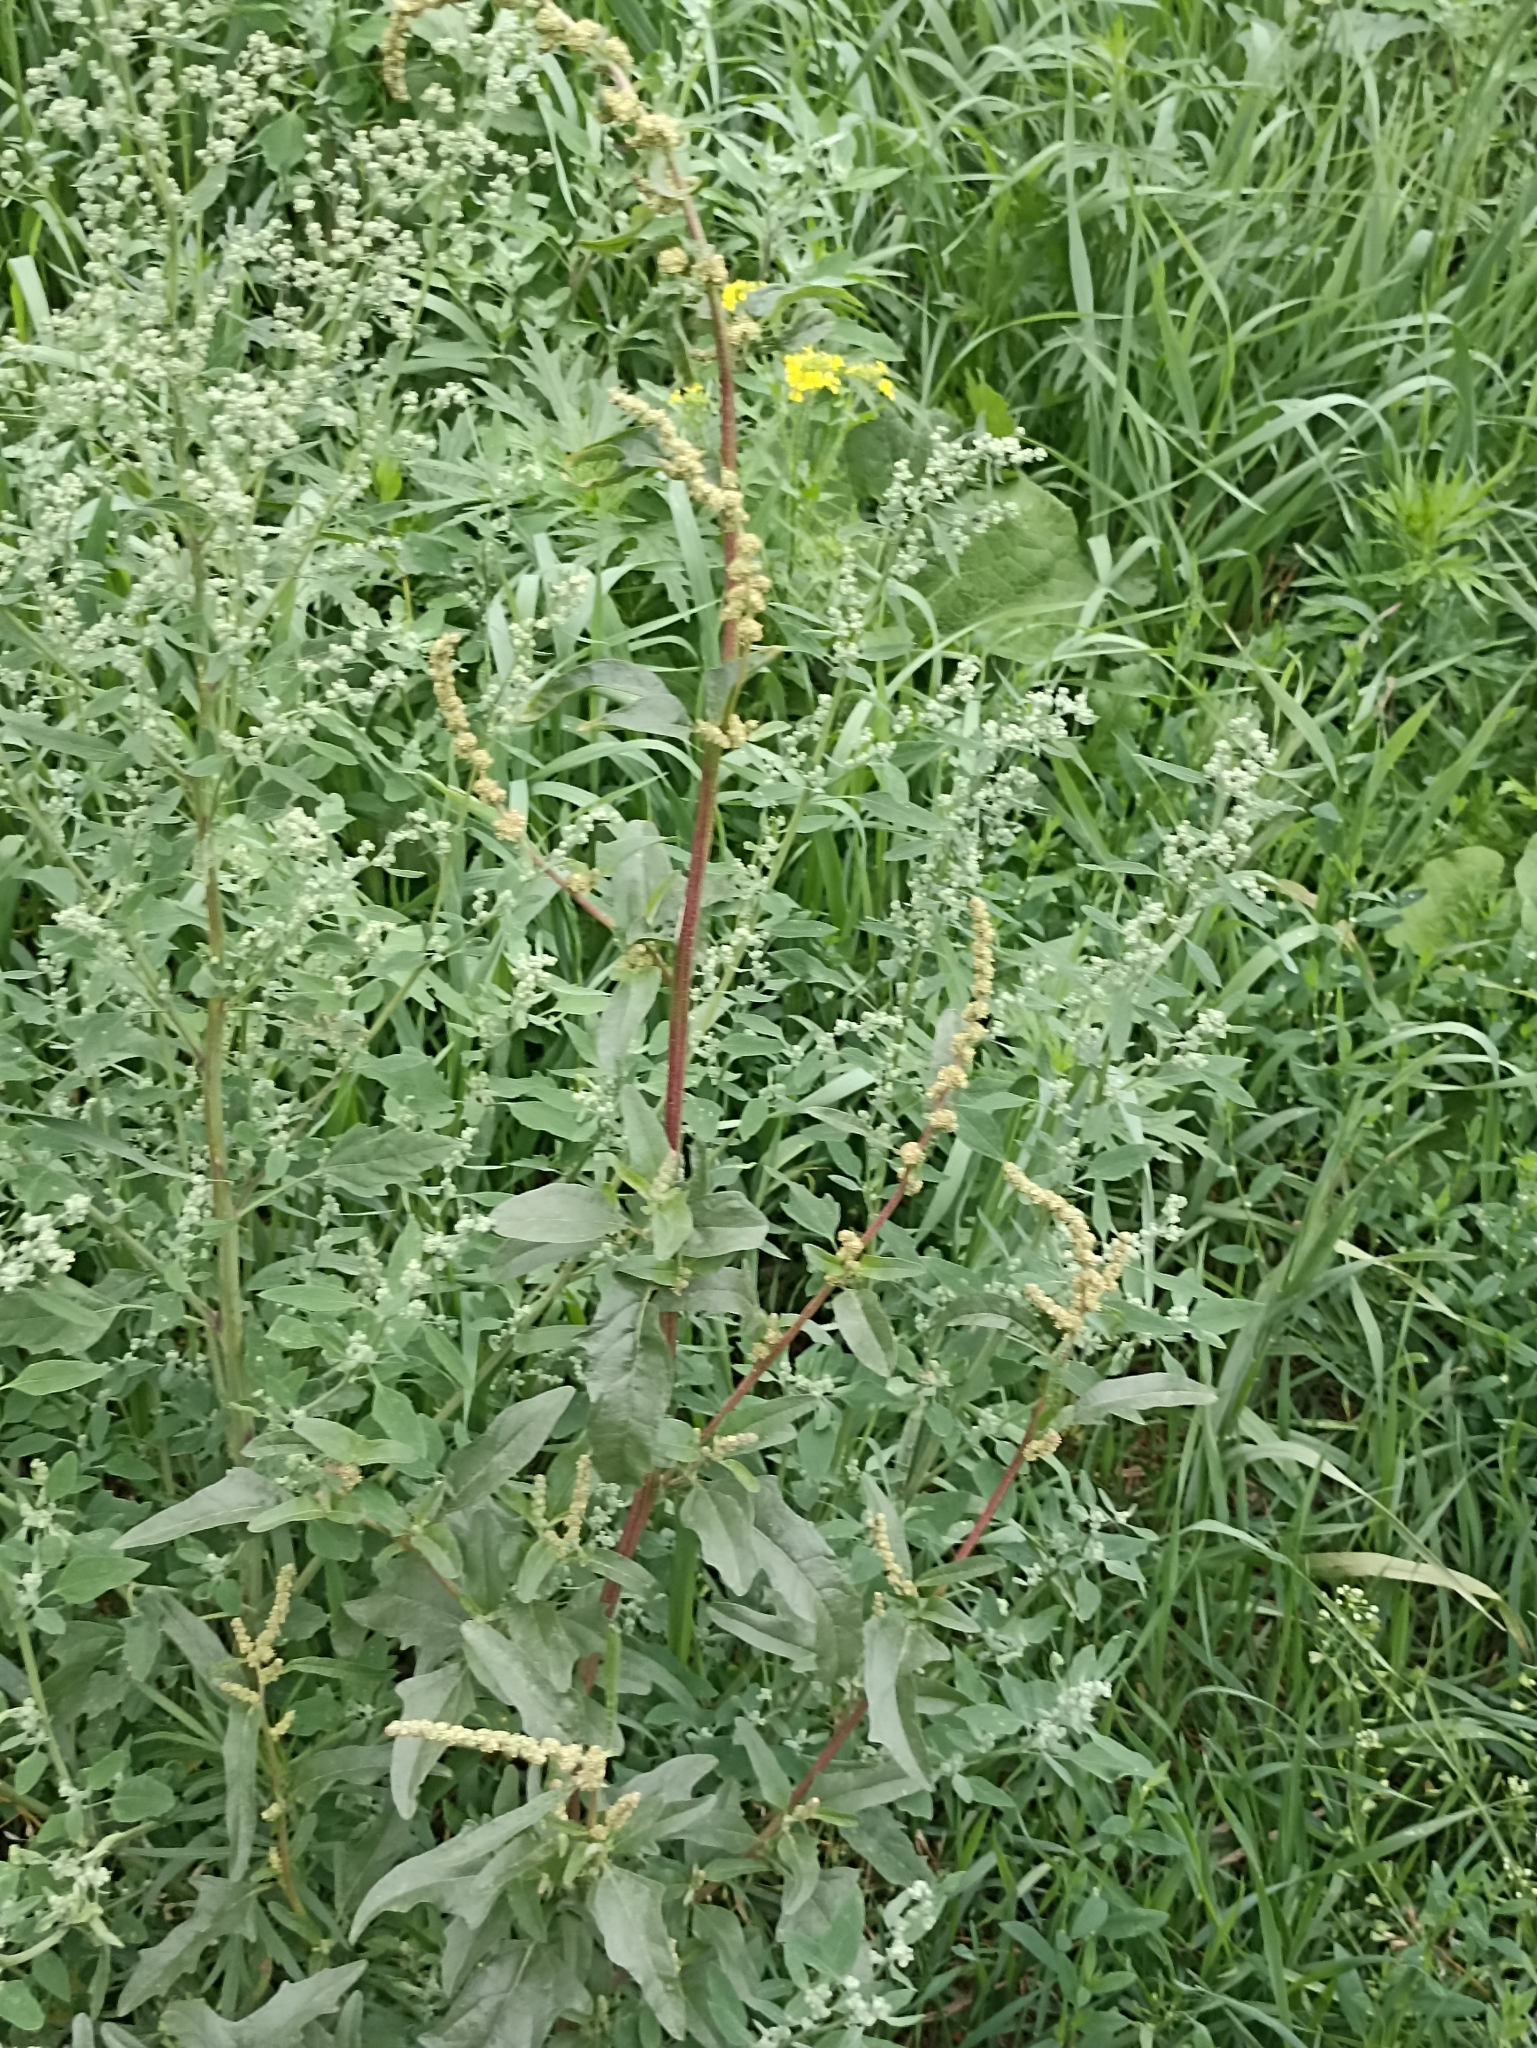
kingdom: Plantae
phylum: Tracheophyta
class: Magnoliopsida
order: Caryophyllales
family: Amaranthaceae
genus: Atriplex
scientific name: Atriplex tatarica
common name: Tatarian orache
